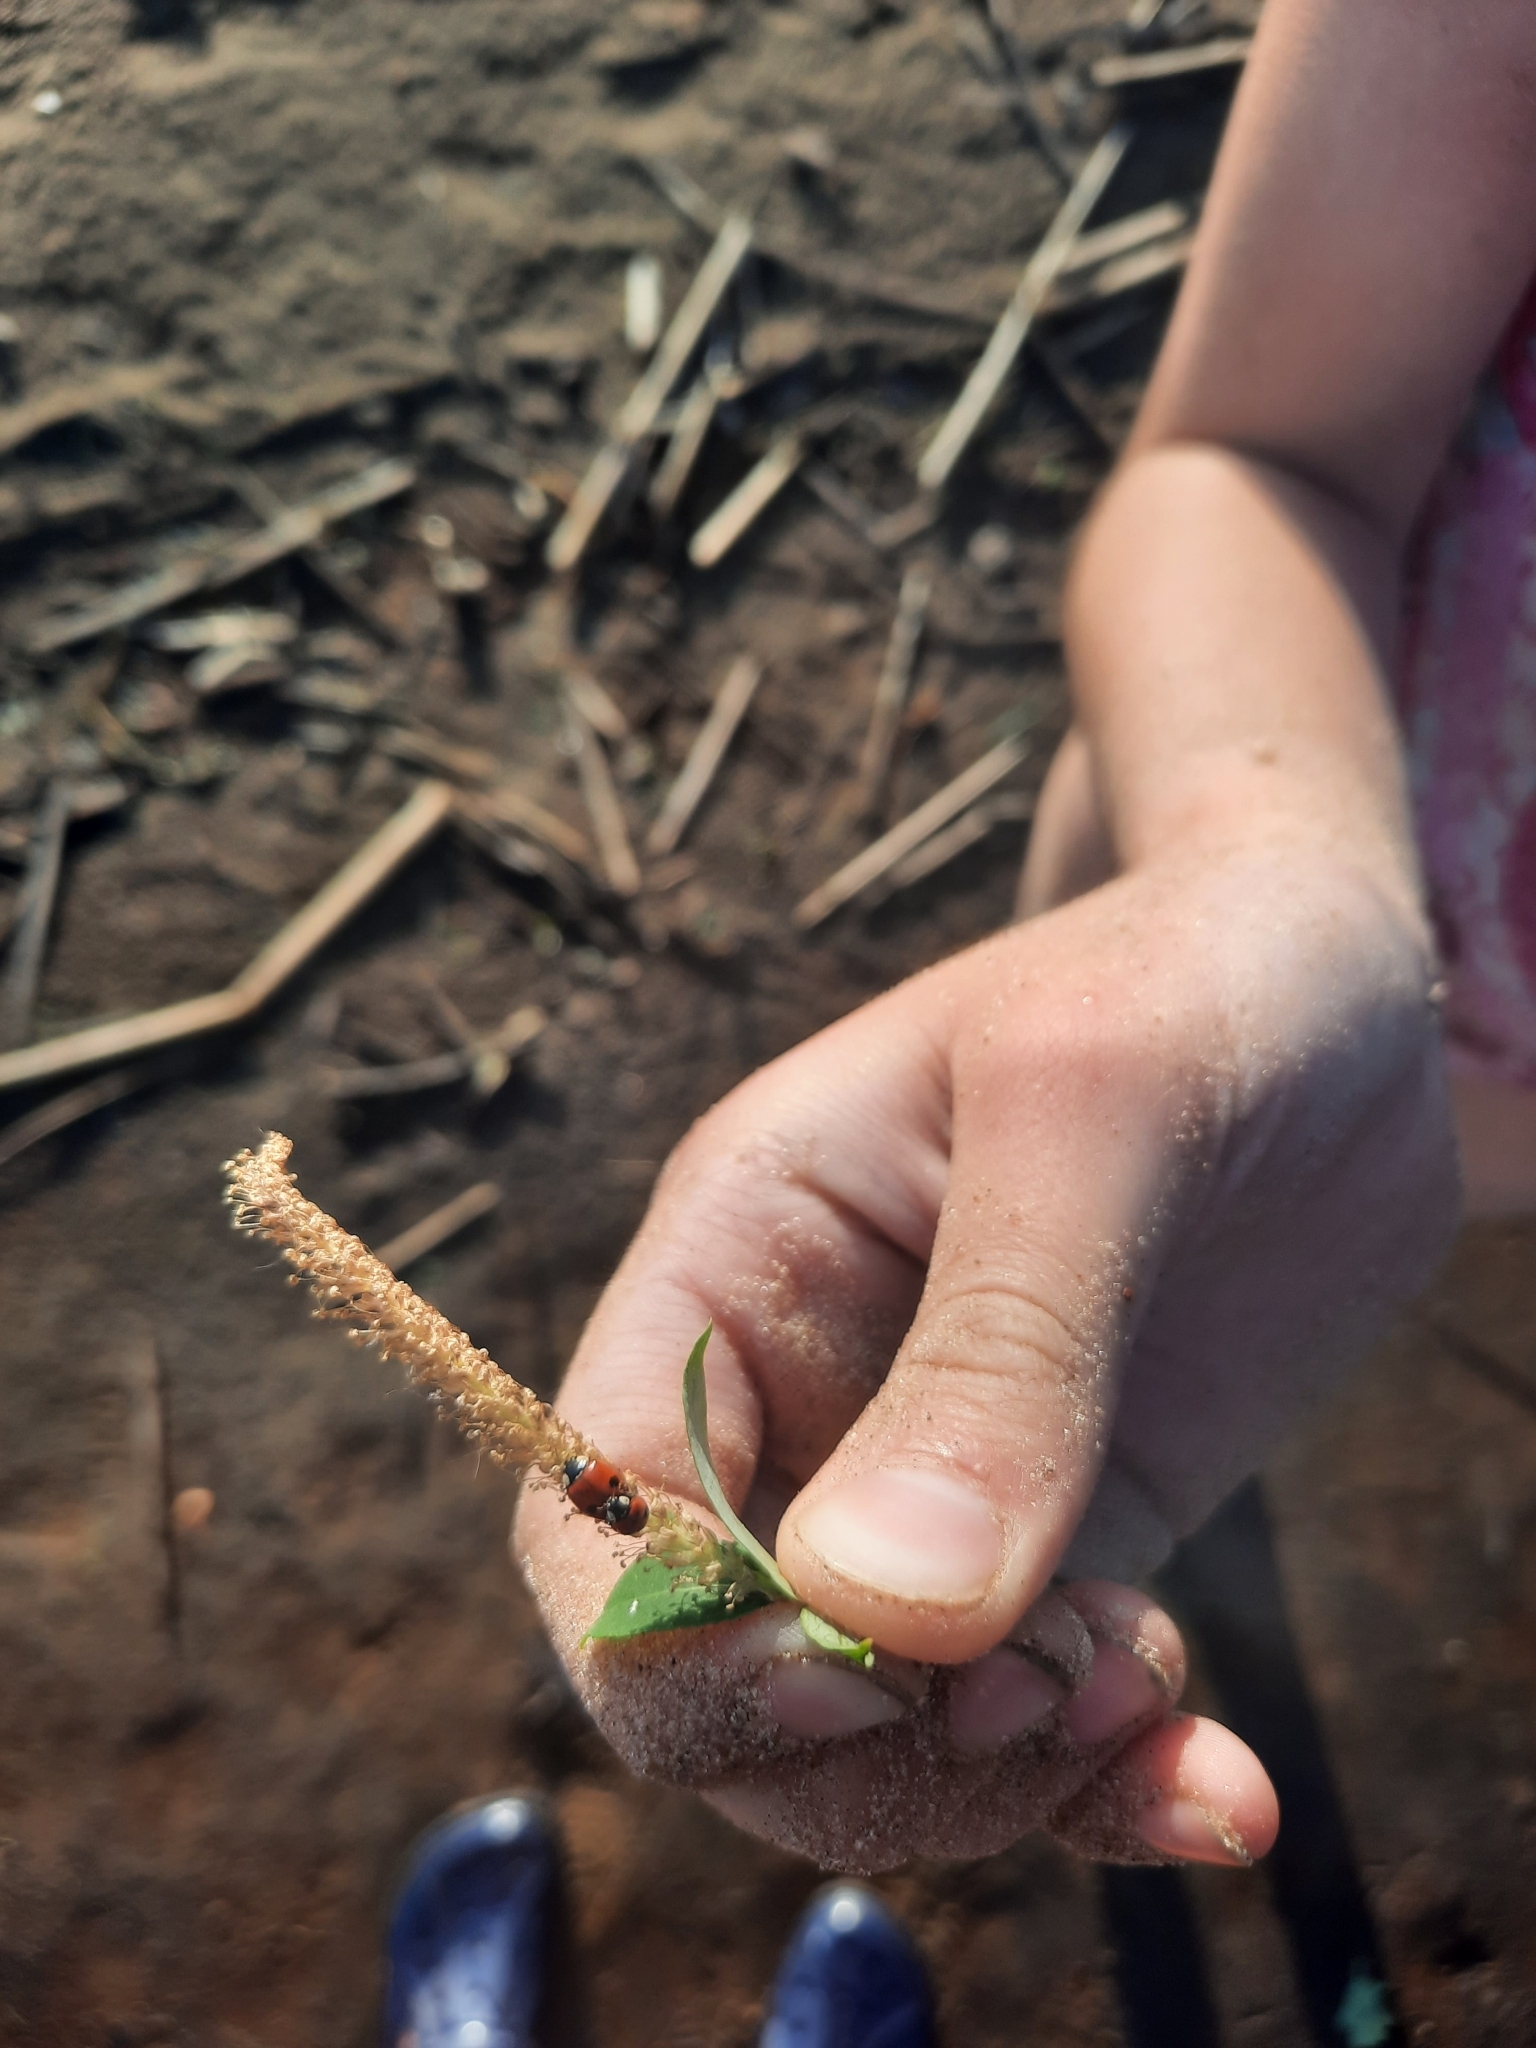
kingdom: Animalia
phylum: Arthropoda
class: Insecta
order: Coleoptera
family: Coccinellidae
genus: Adalia
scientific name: Adalia bipunctata
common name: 2-spot ladybird
